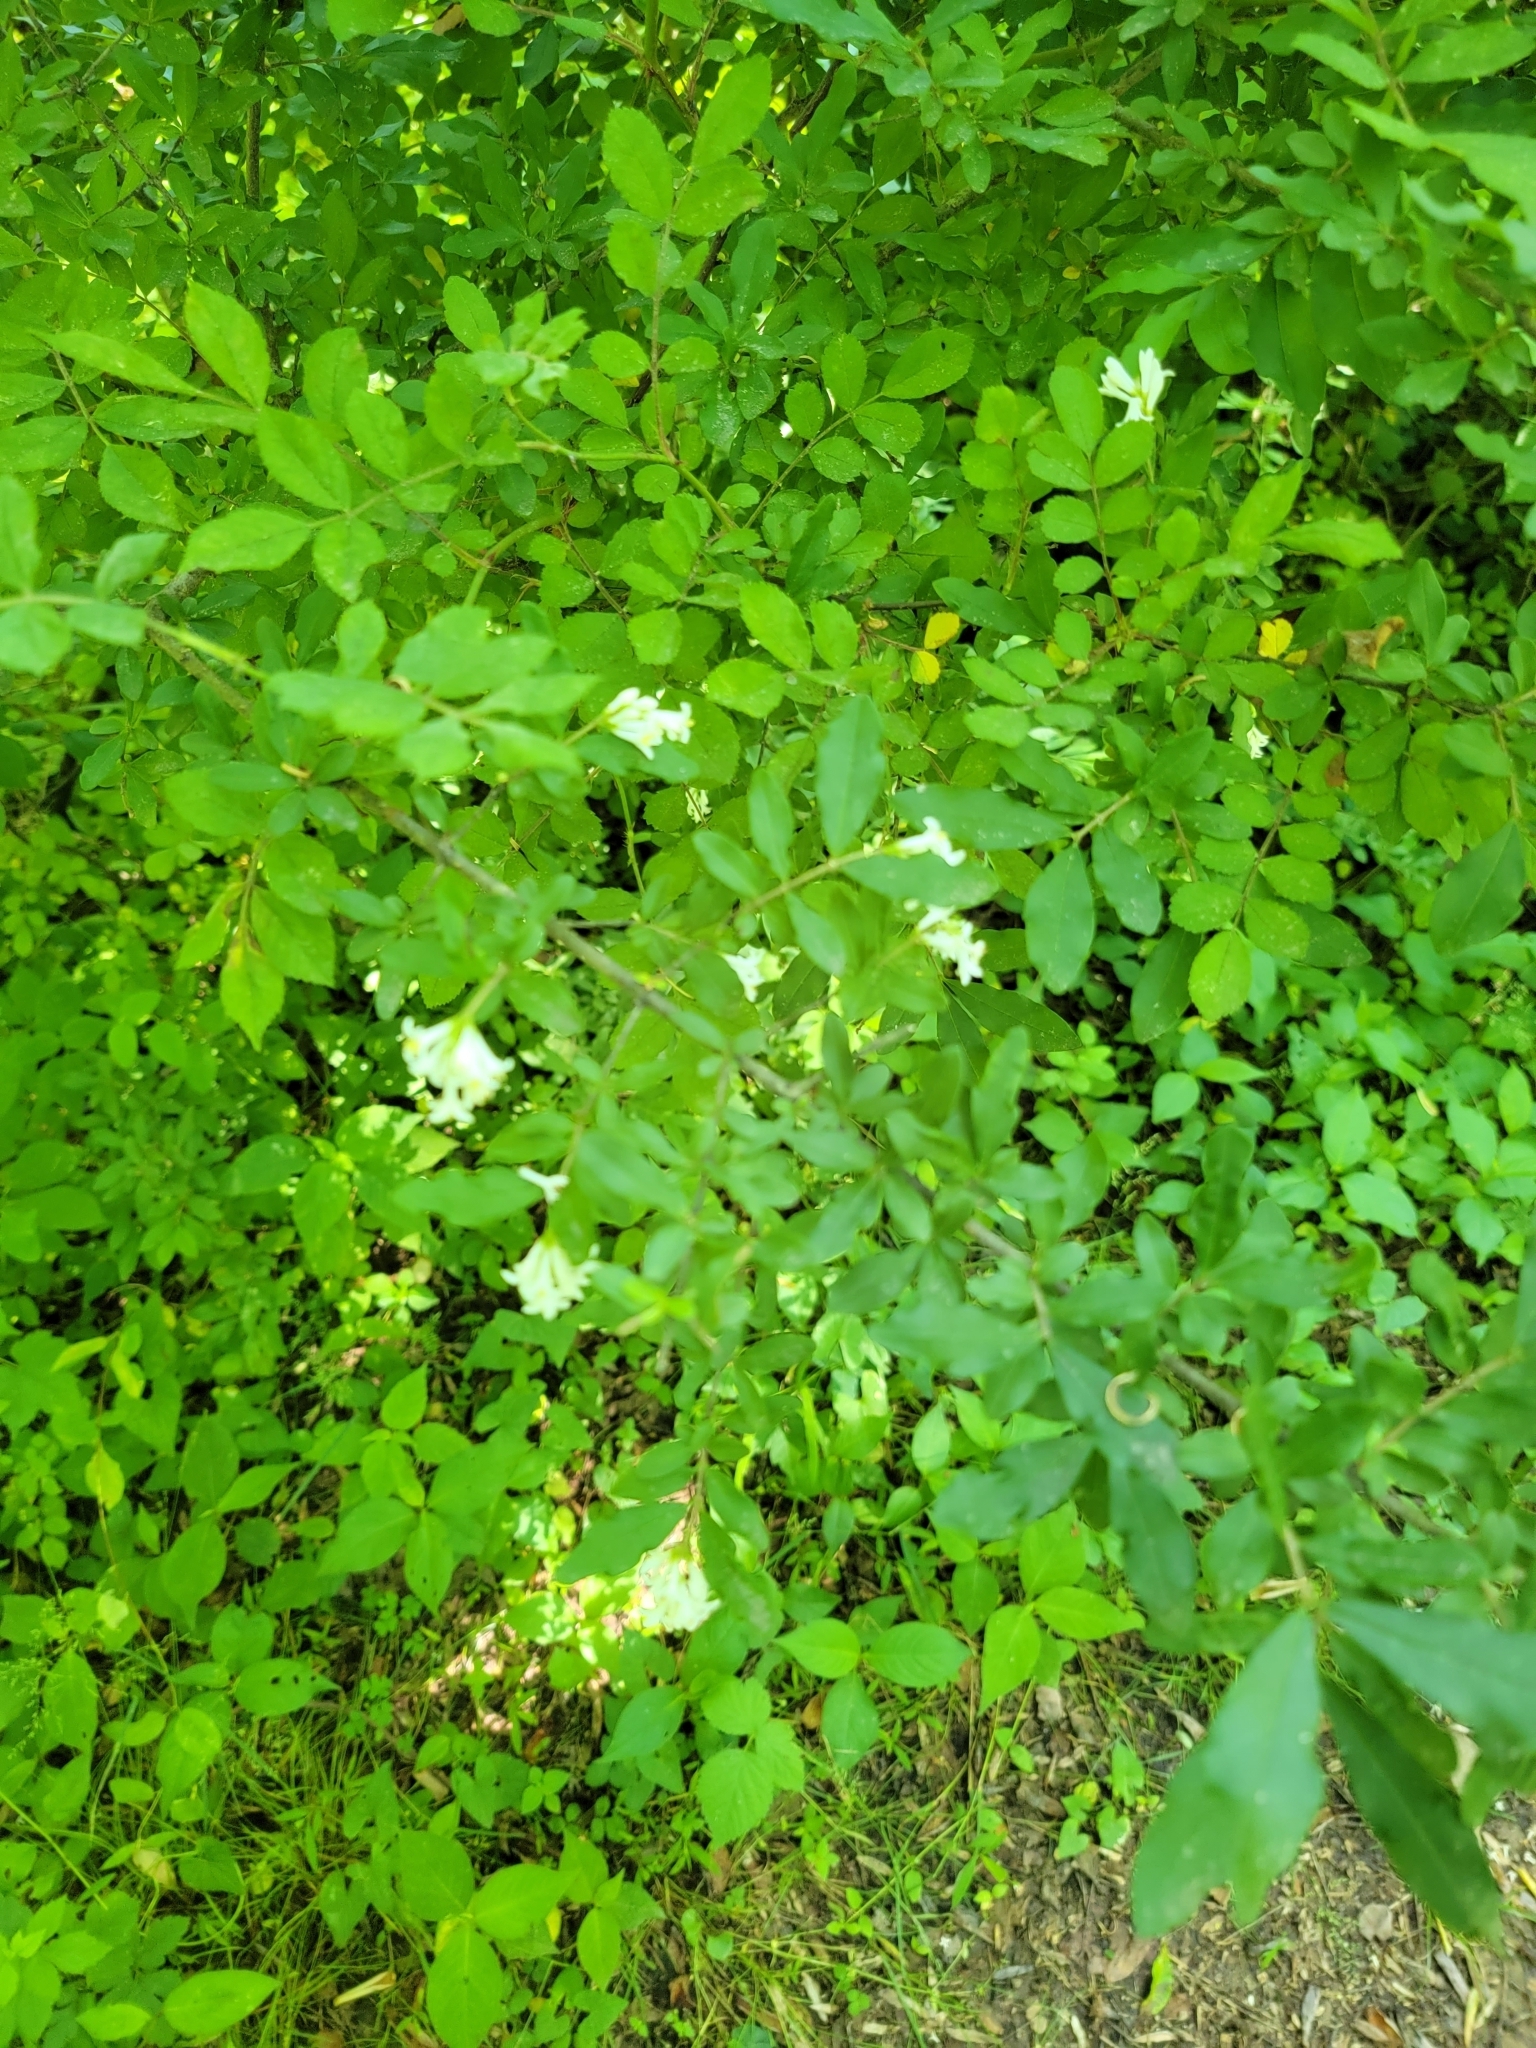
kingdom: Plantae
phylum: Tracheophyta
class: Magnoliopsida
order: Lamiales
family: Oleaceae
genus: Ligustrum
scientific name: Ligustrum obtusifolium
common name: Border privet
